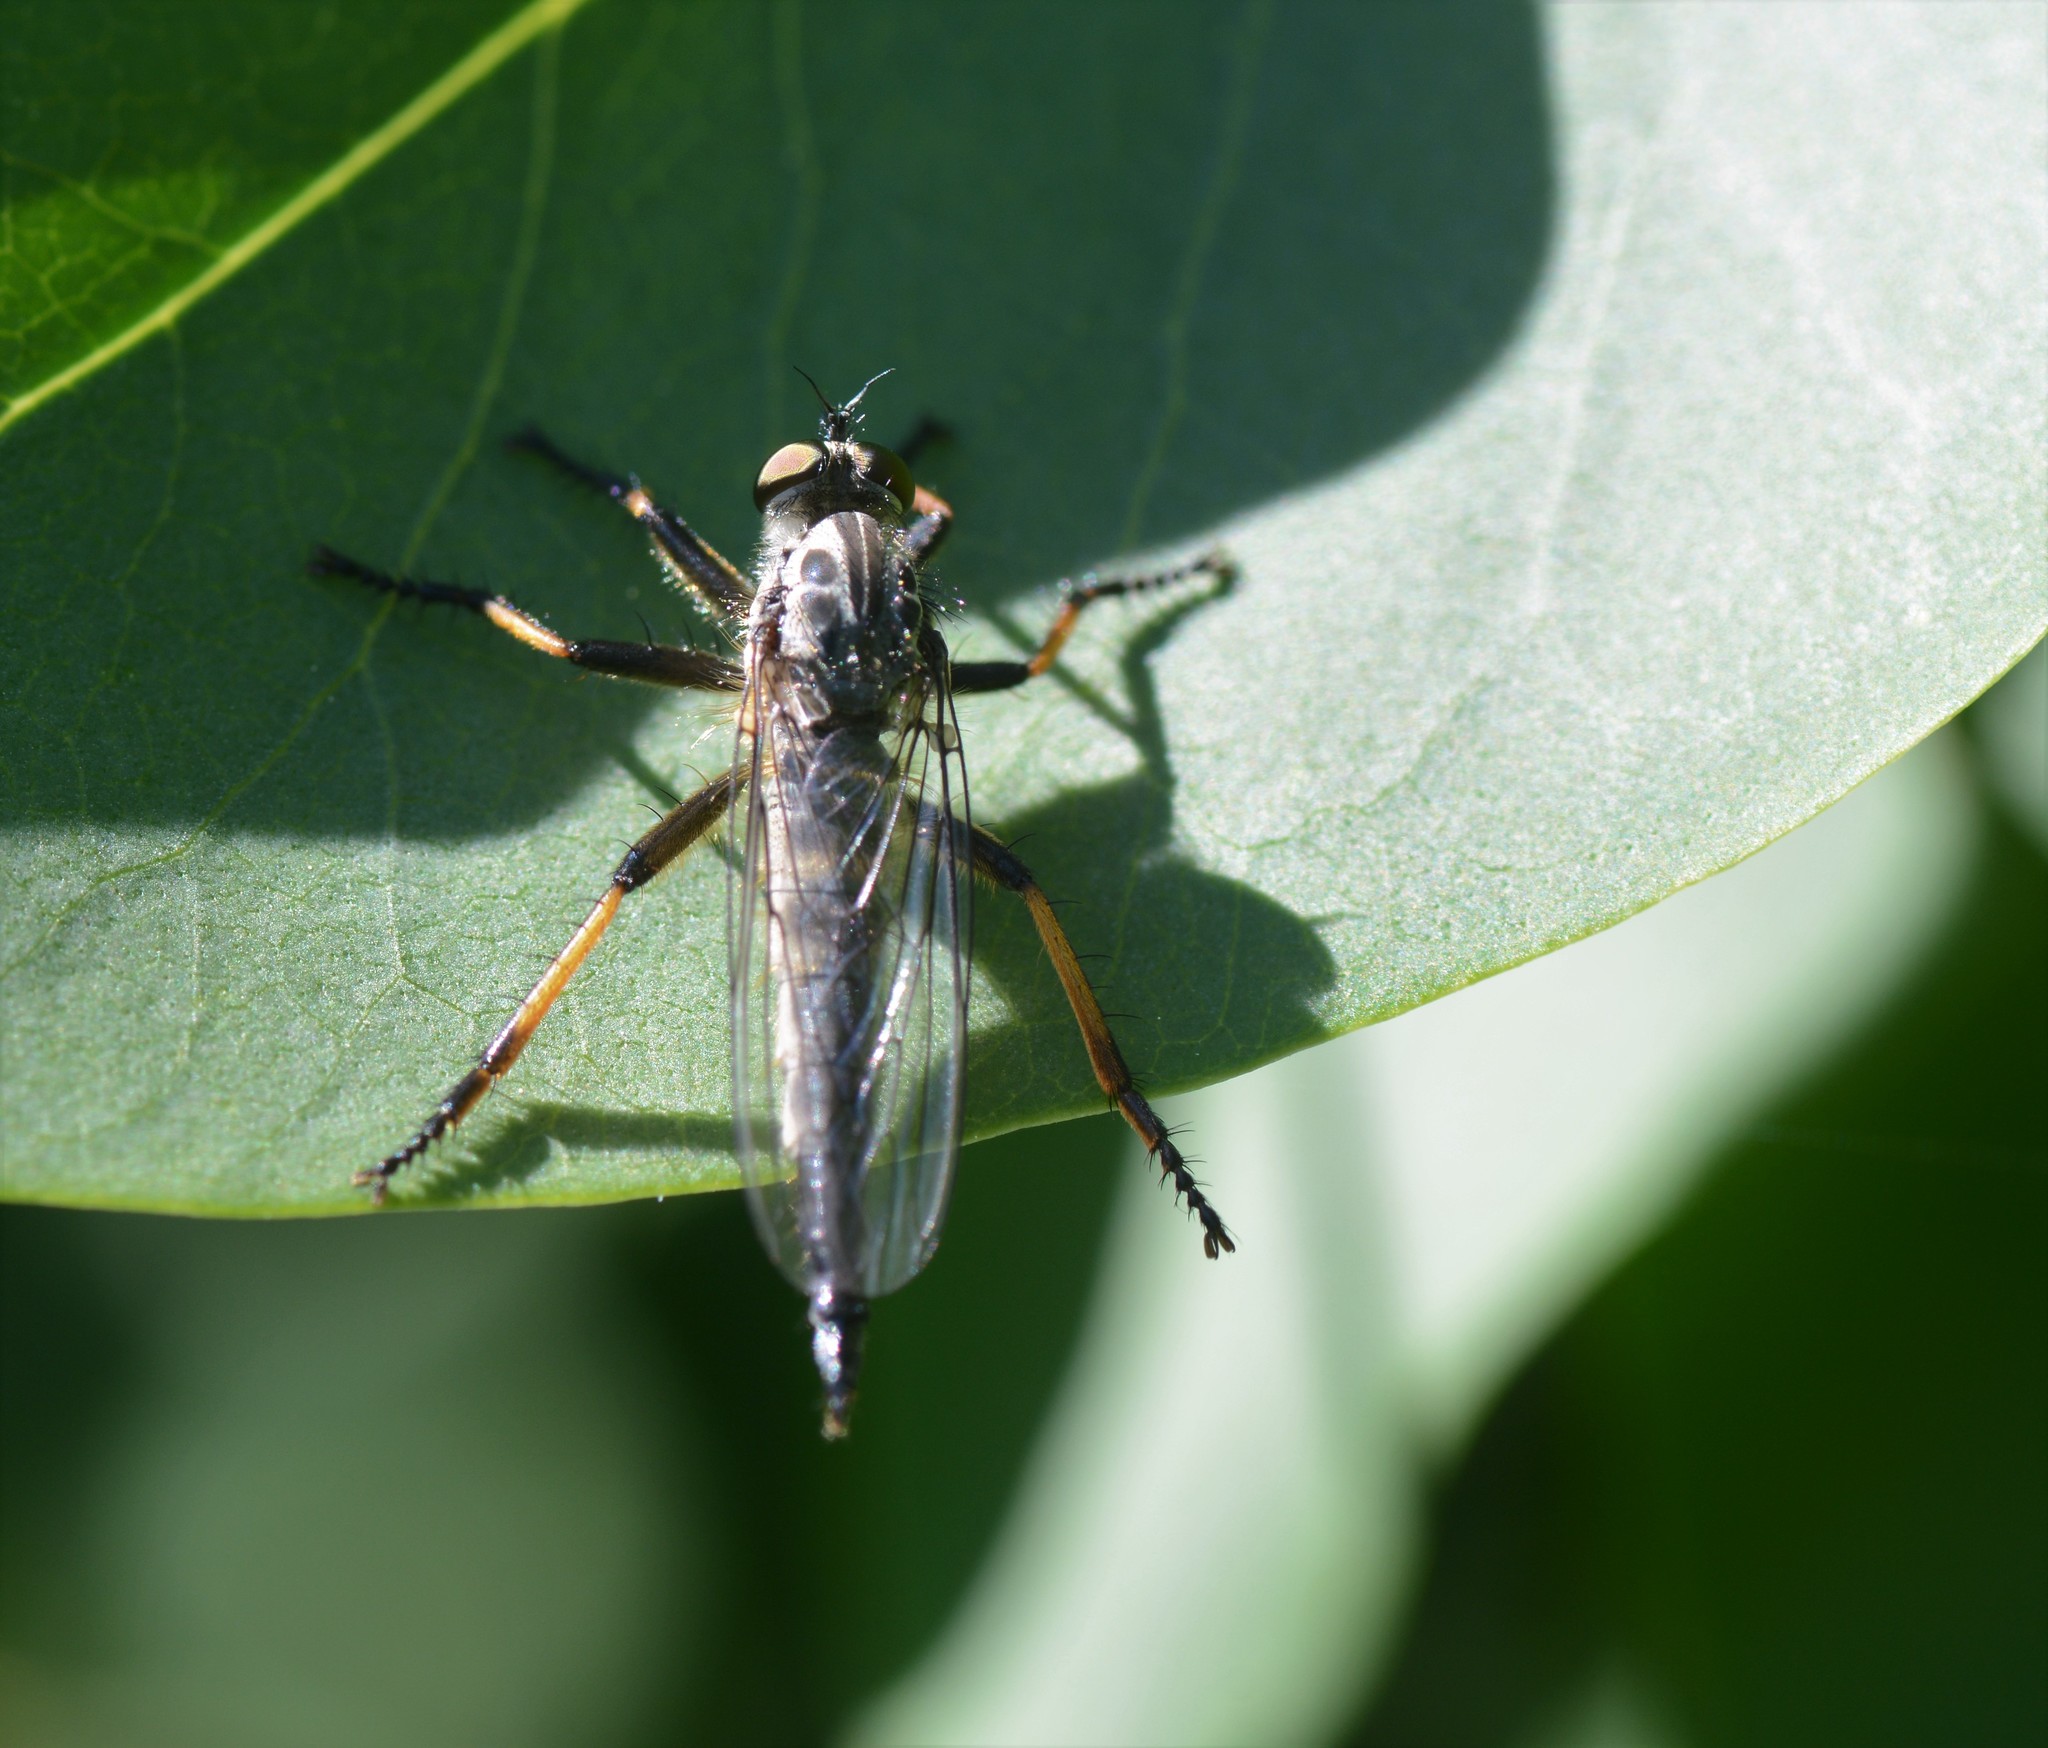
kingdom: Animalia
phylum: Arthropoda
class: Insecta
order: Diptera
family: Asilidae
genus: Neoitamus
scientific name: Neoitamus cyanurus
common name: Common awl robberfly
